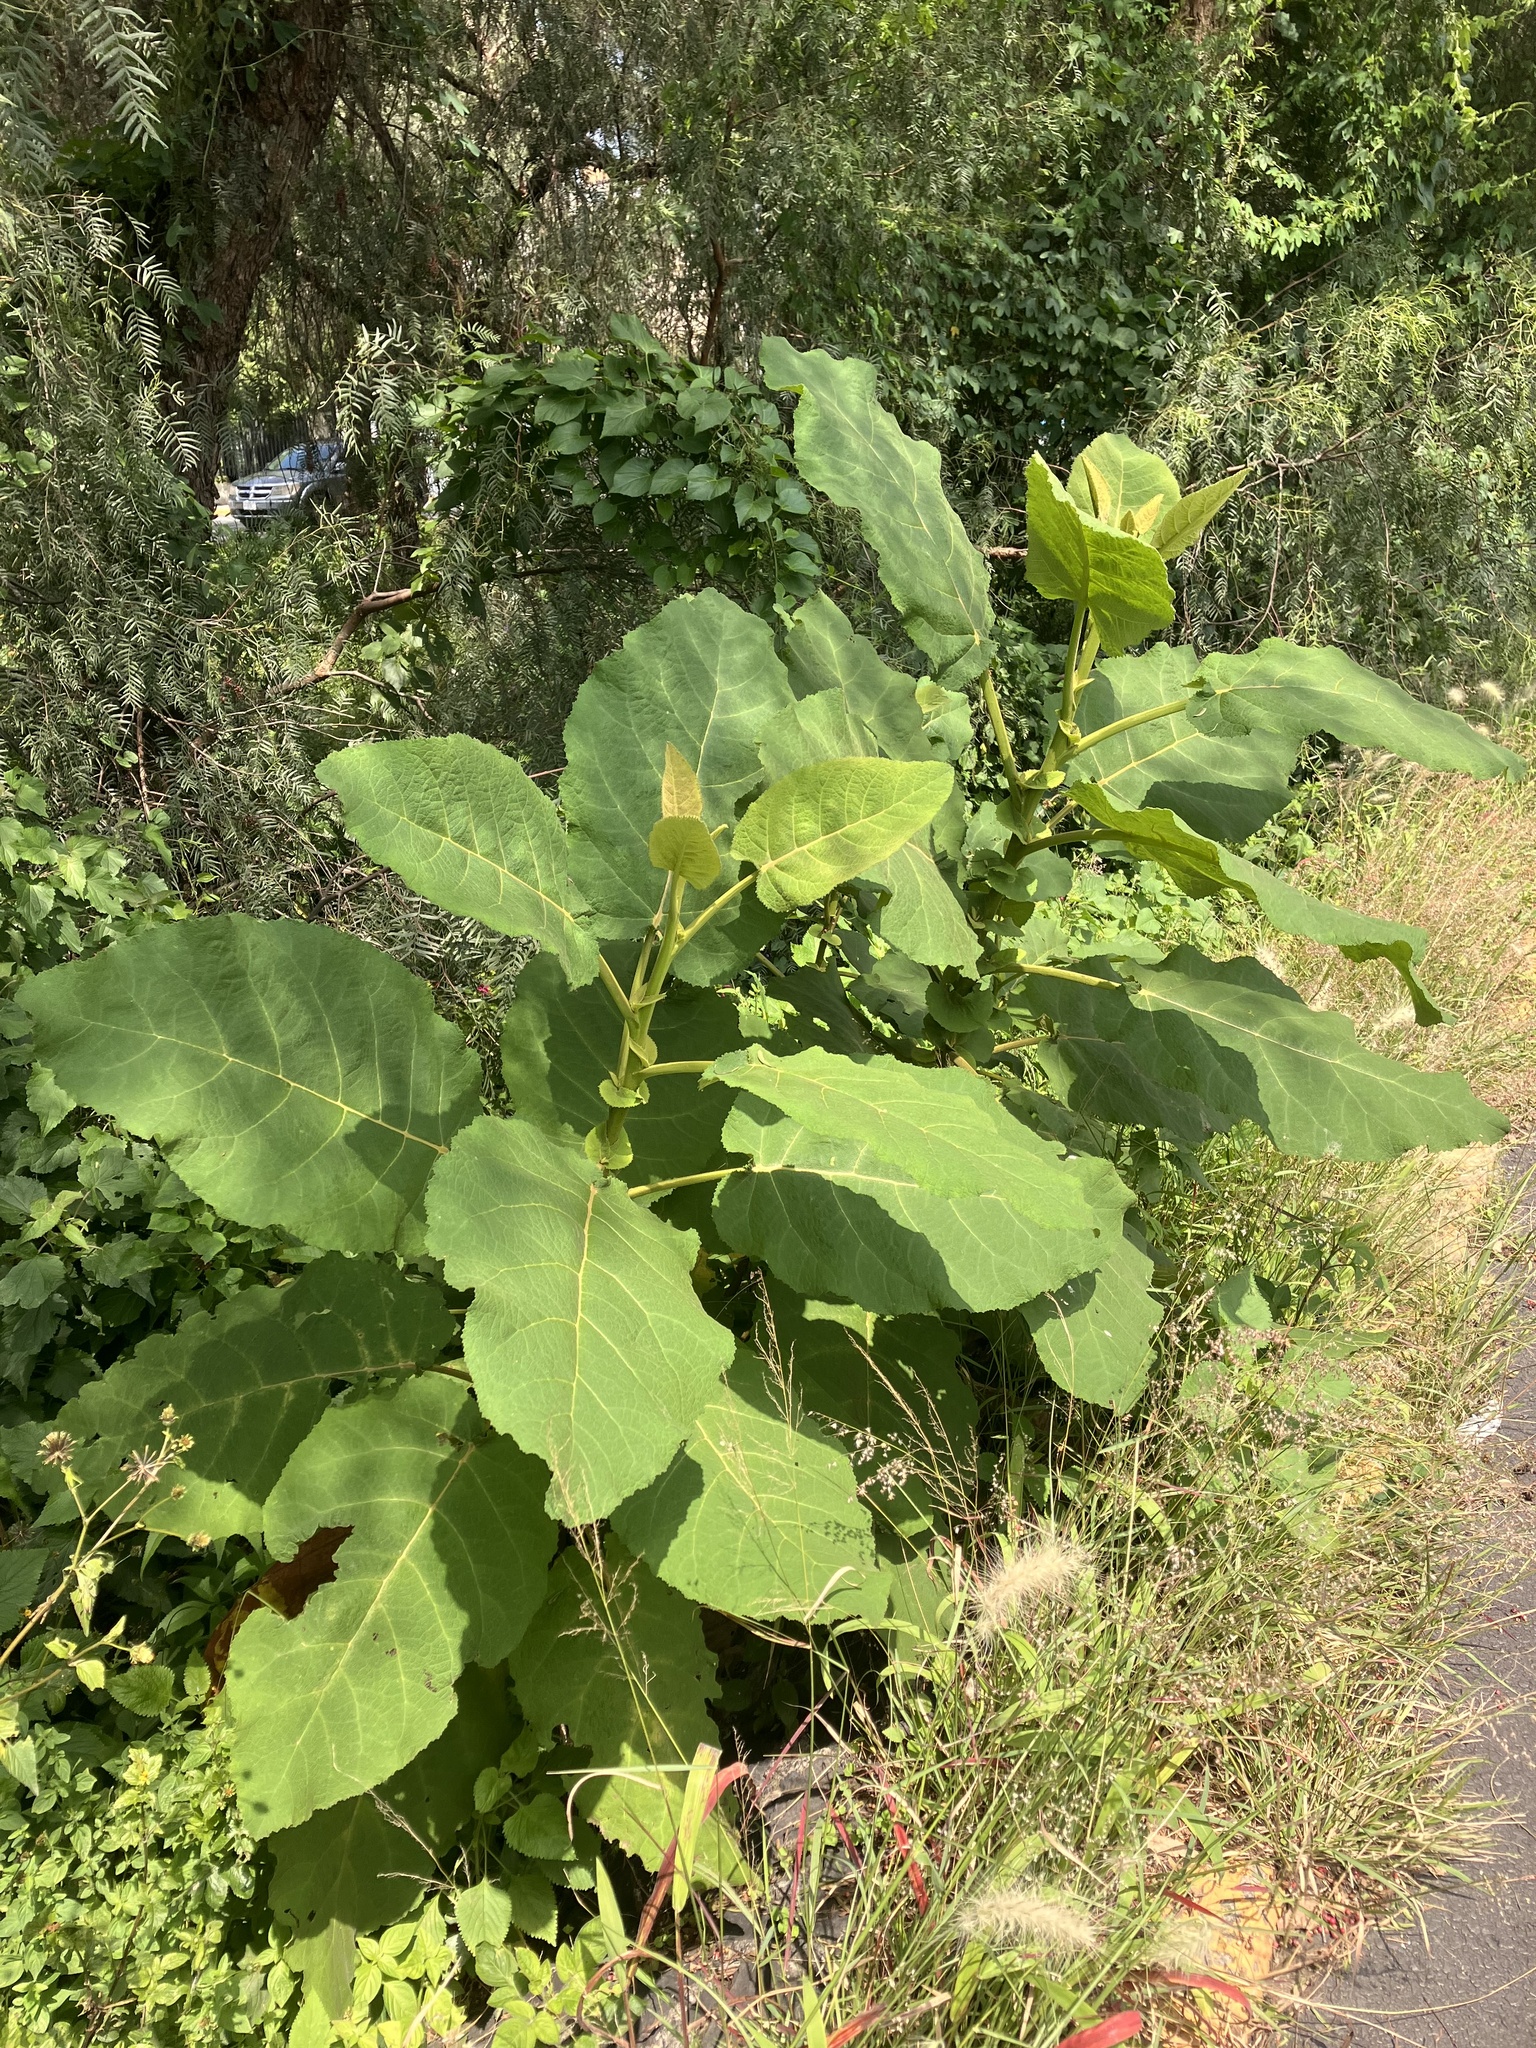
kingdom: Plantae
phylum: Tracheophyta
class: Magnoliopsida
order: Boraginales
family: Namaceae
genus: Wigandia
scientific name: Wigandia urens
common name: Caracus wigandia
